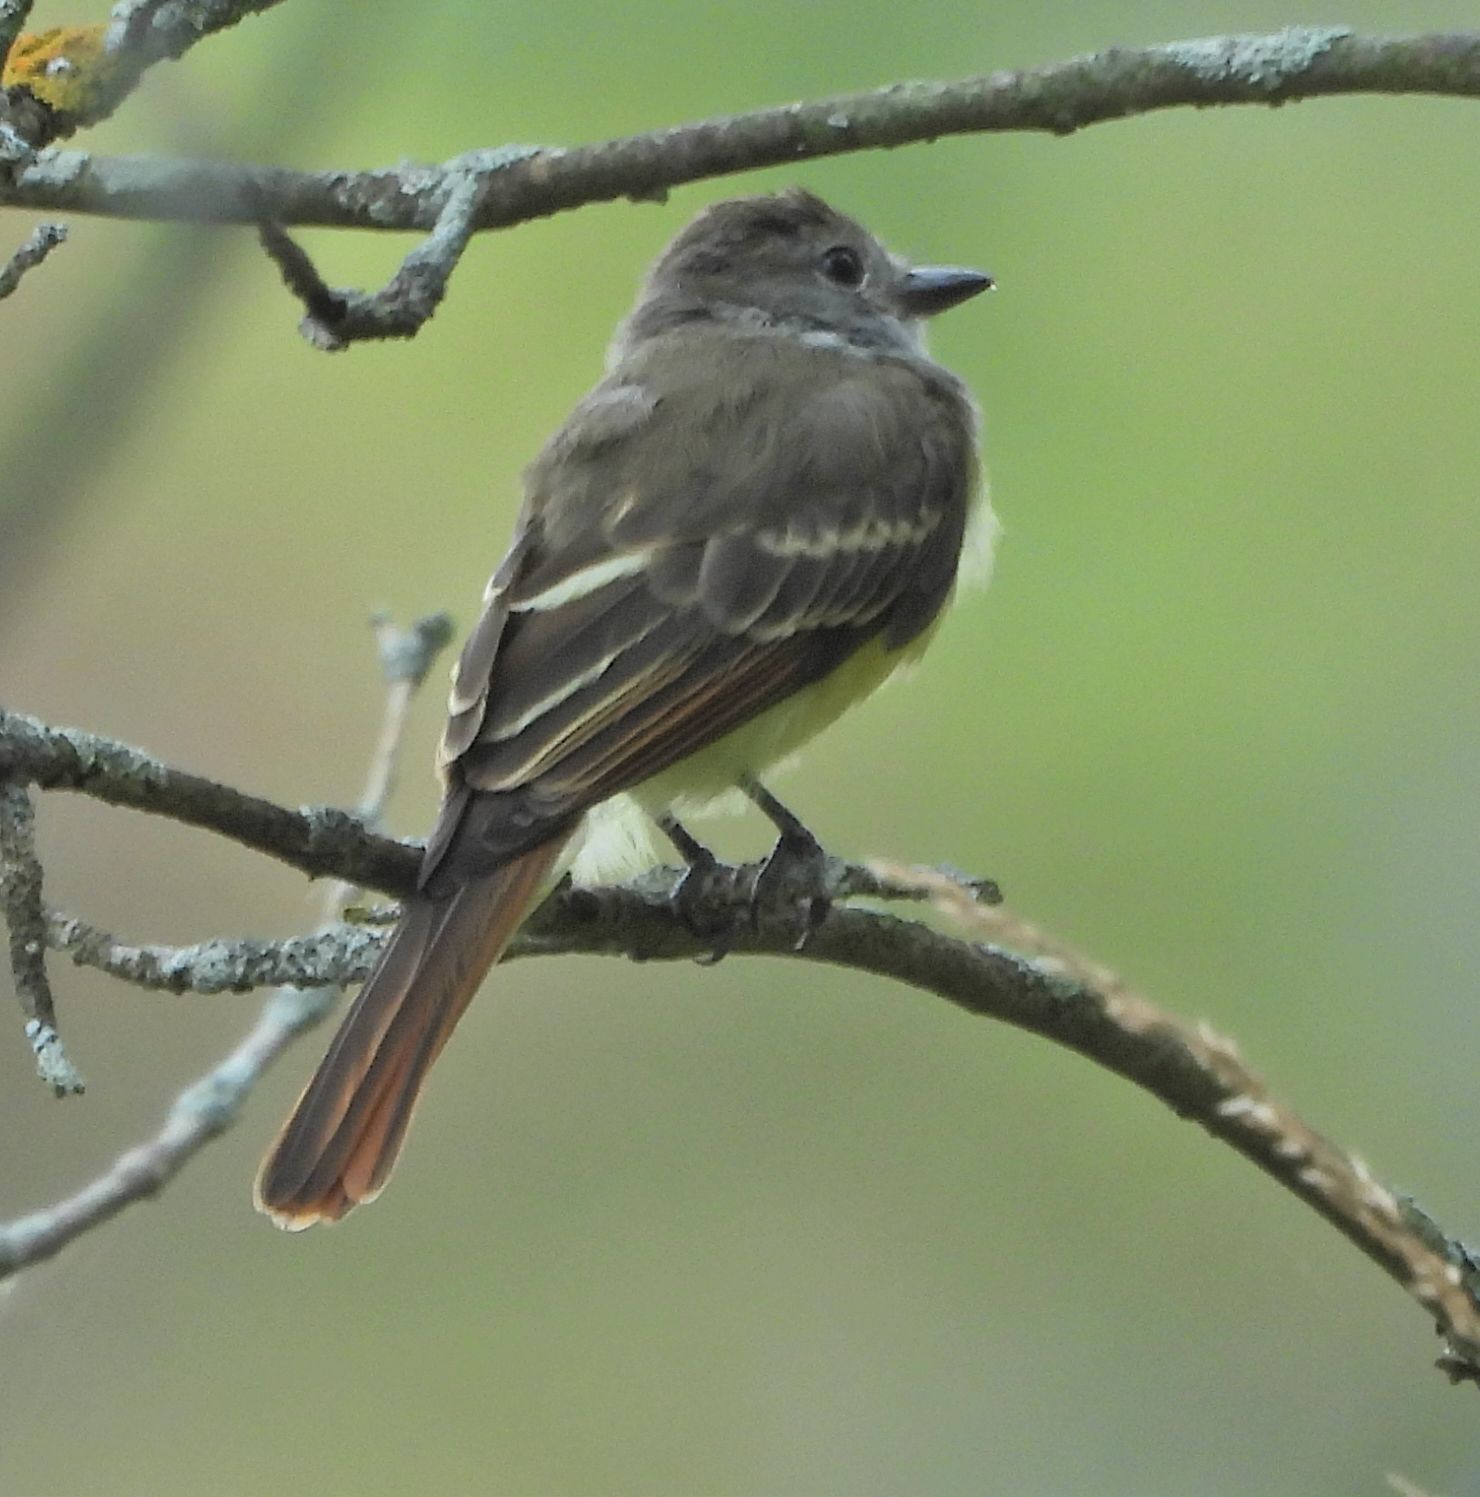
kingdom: Animalia
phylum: Chordata
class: Aves
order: Passeriformes
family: Tyrannidae
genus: Myiarchus
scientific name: Myiarchus crinitus
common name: Great crested flycatcher
